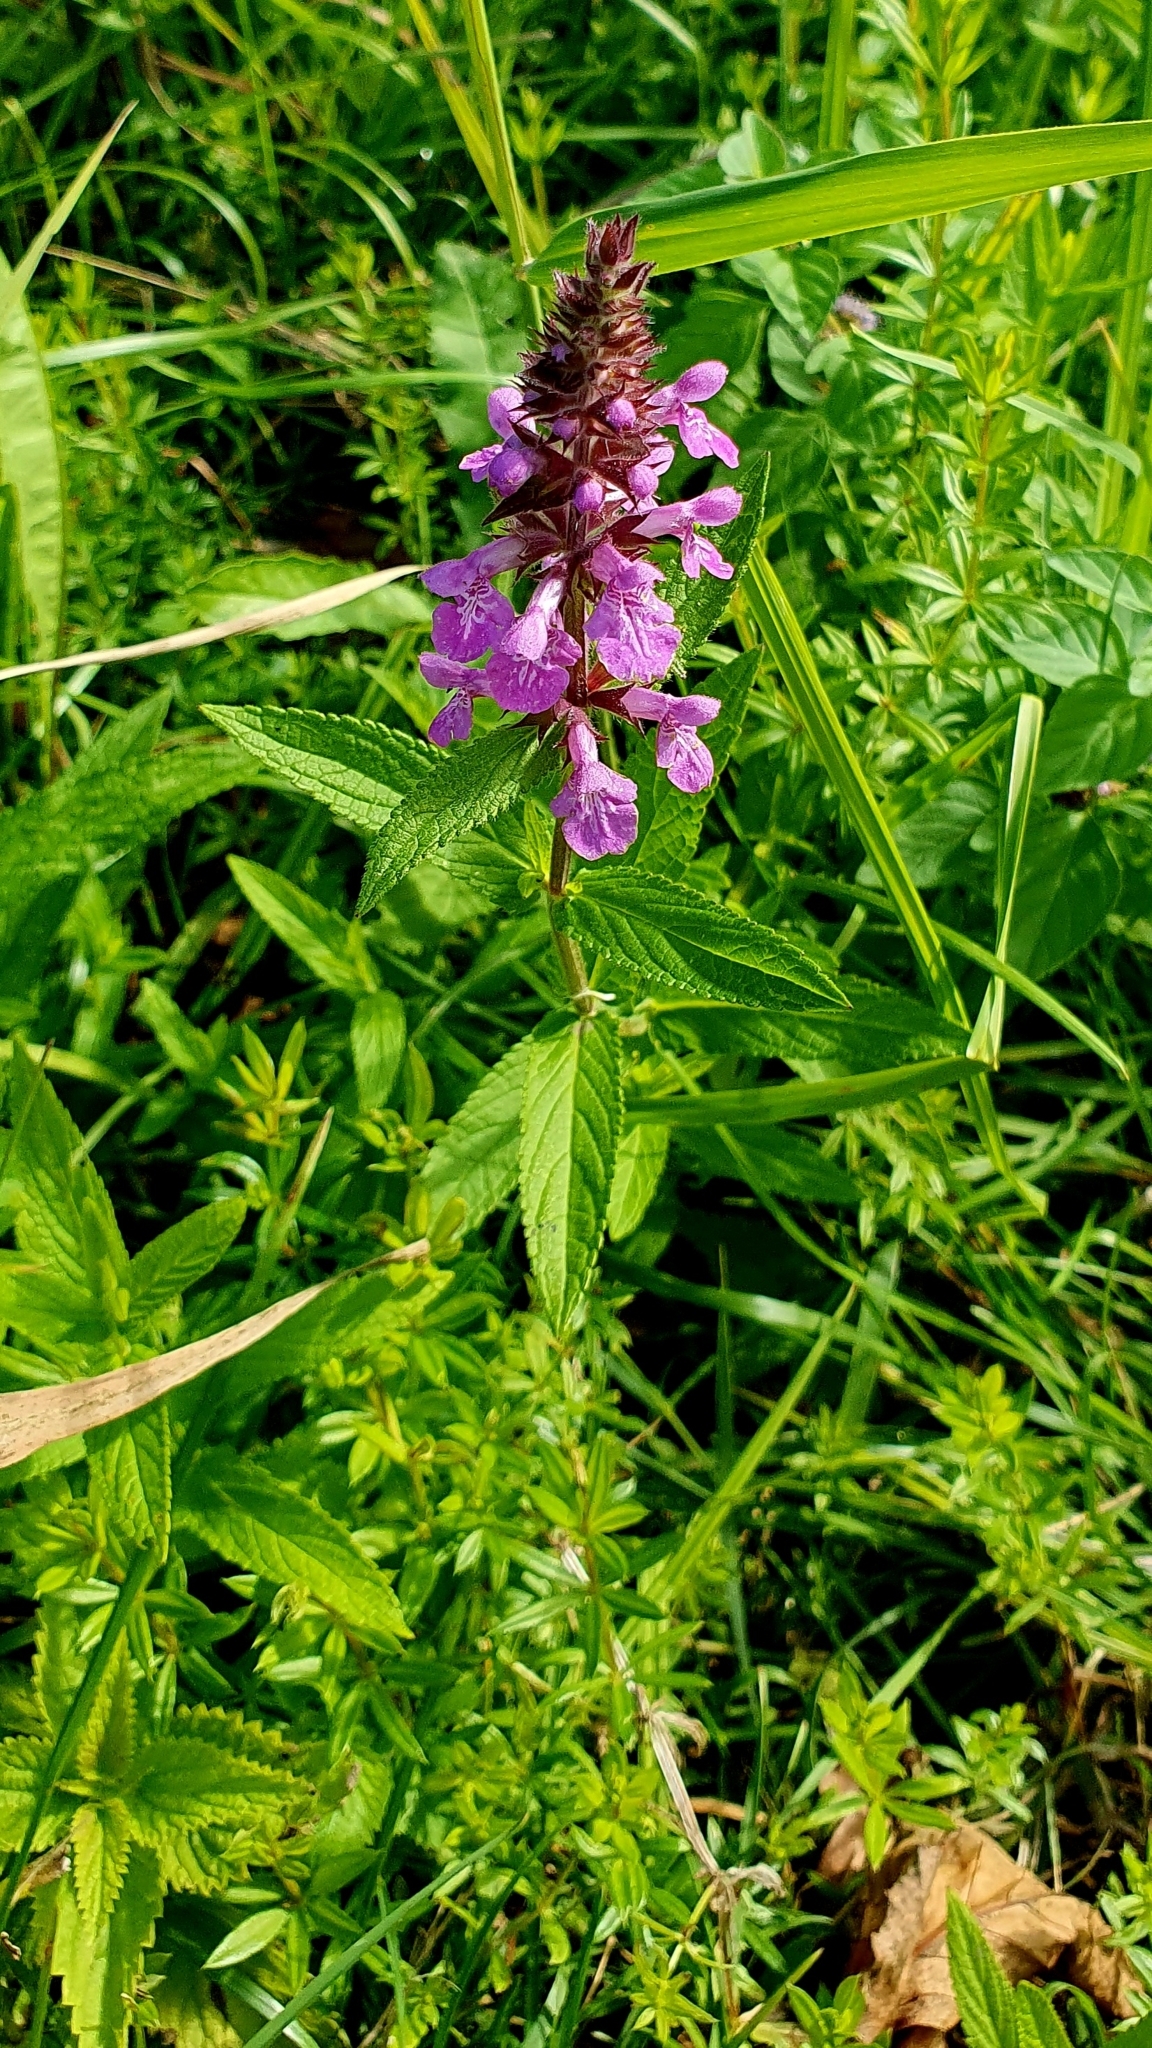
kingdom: Plantae
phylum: Tracheophyta
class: Magnoliopsida
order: Lamiales
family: Lamiaceae
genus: Stachys
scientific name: Stachys palustris
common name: Marsh woundwort
